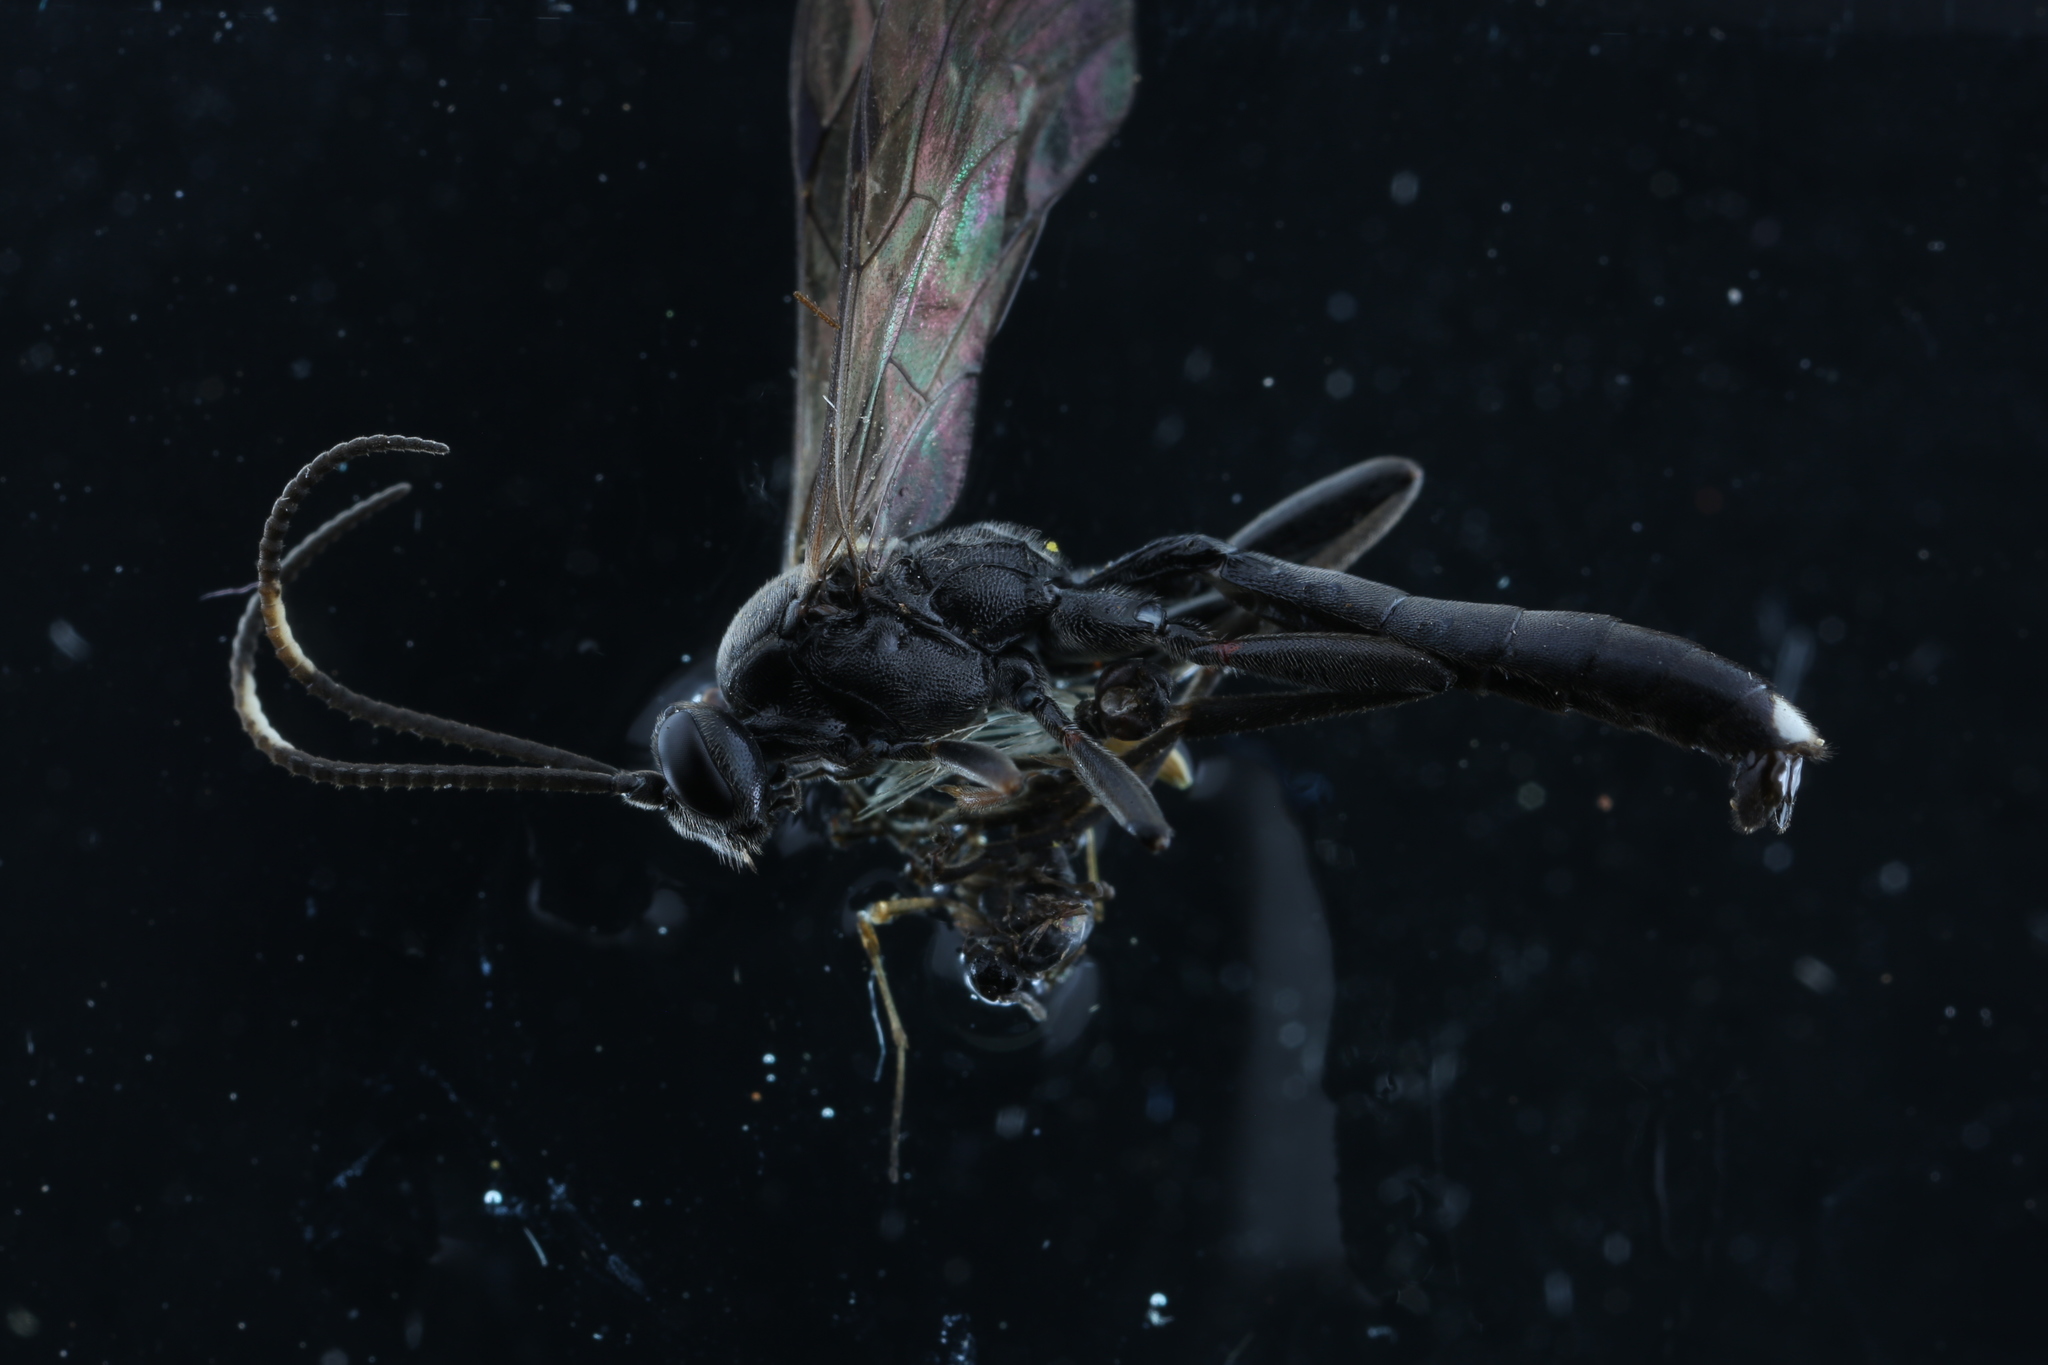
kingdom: Animalia
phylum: Arthropoda
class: Insecta
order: Hymenoptera
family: Ichneumonidae
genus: Vulgichneumon
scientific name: Vulgichneumon brevicinctor
